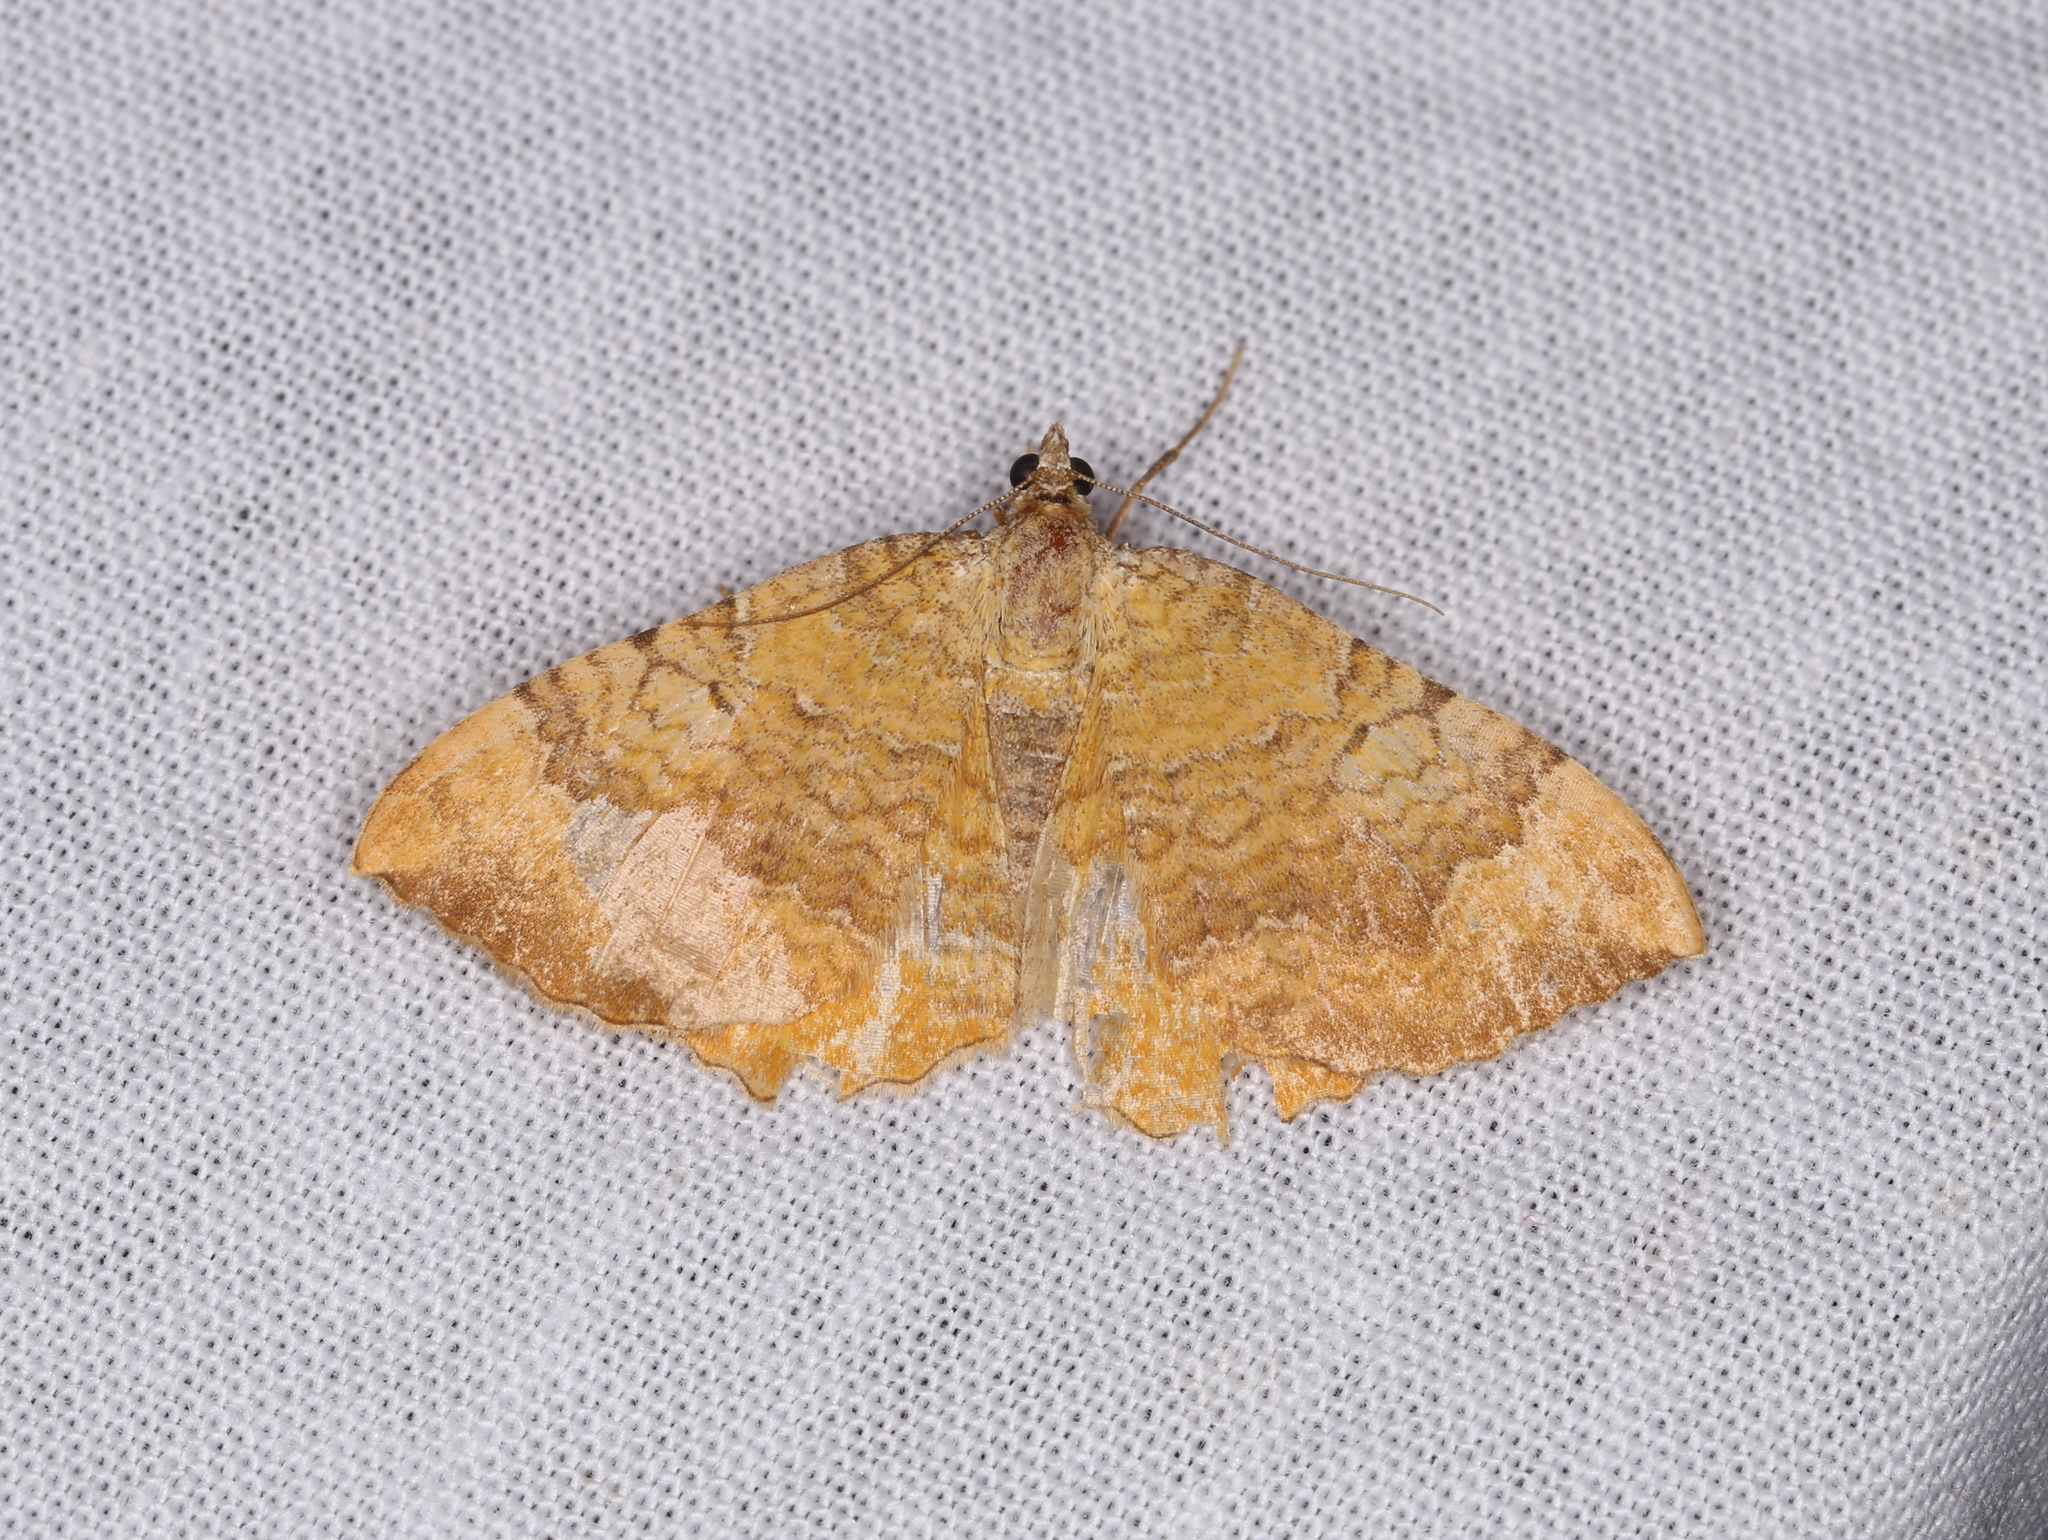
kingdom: Animalia
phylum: Arthropoda
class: Insecta
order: Lepidoptera
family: Geometridae
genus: Camptogramma
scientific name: Camptogramma bilineata
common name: Yellow shell
